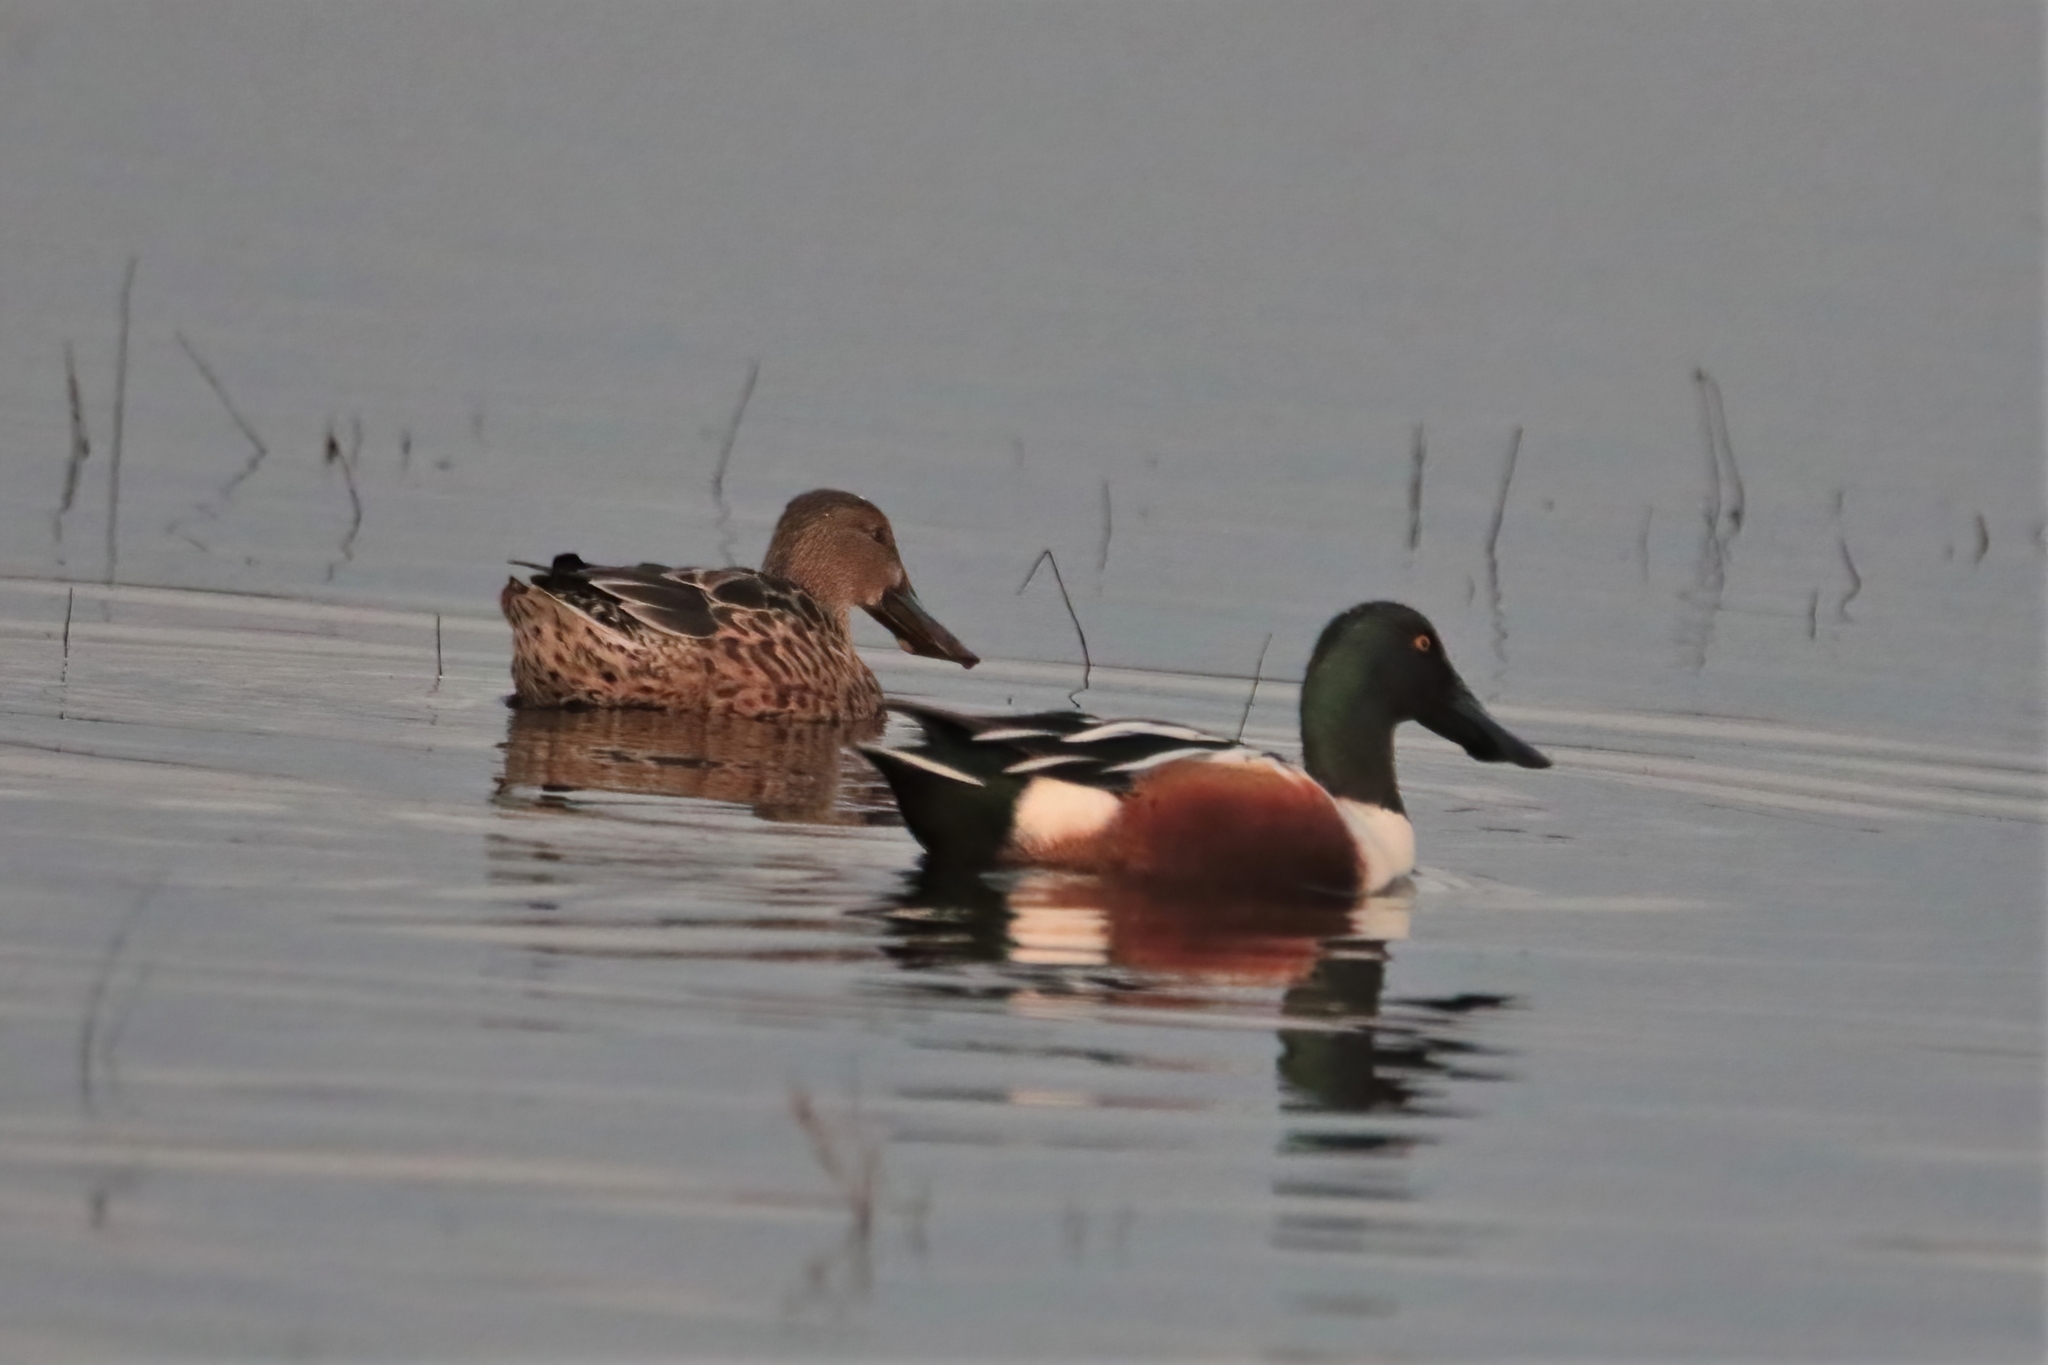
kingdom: Animalia
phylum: Chordata
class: Aves
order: Anseriformes
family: Anatidae
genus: Spatula
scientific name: Spatula clypeata
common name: Northern shoveler
